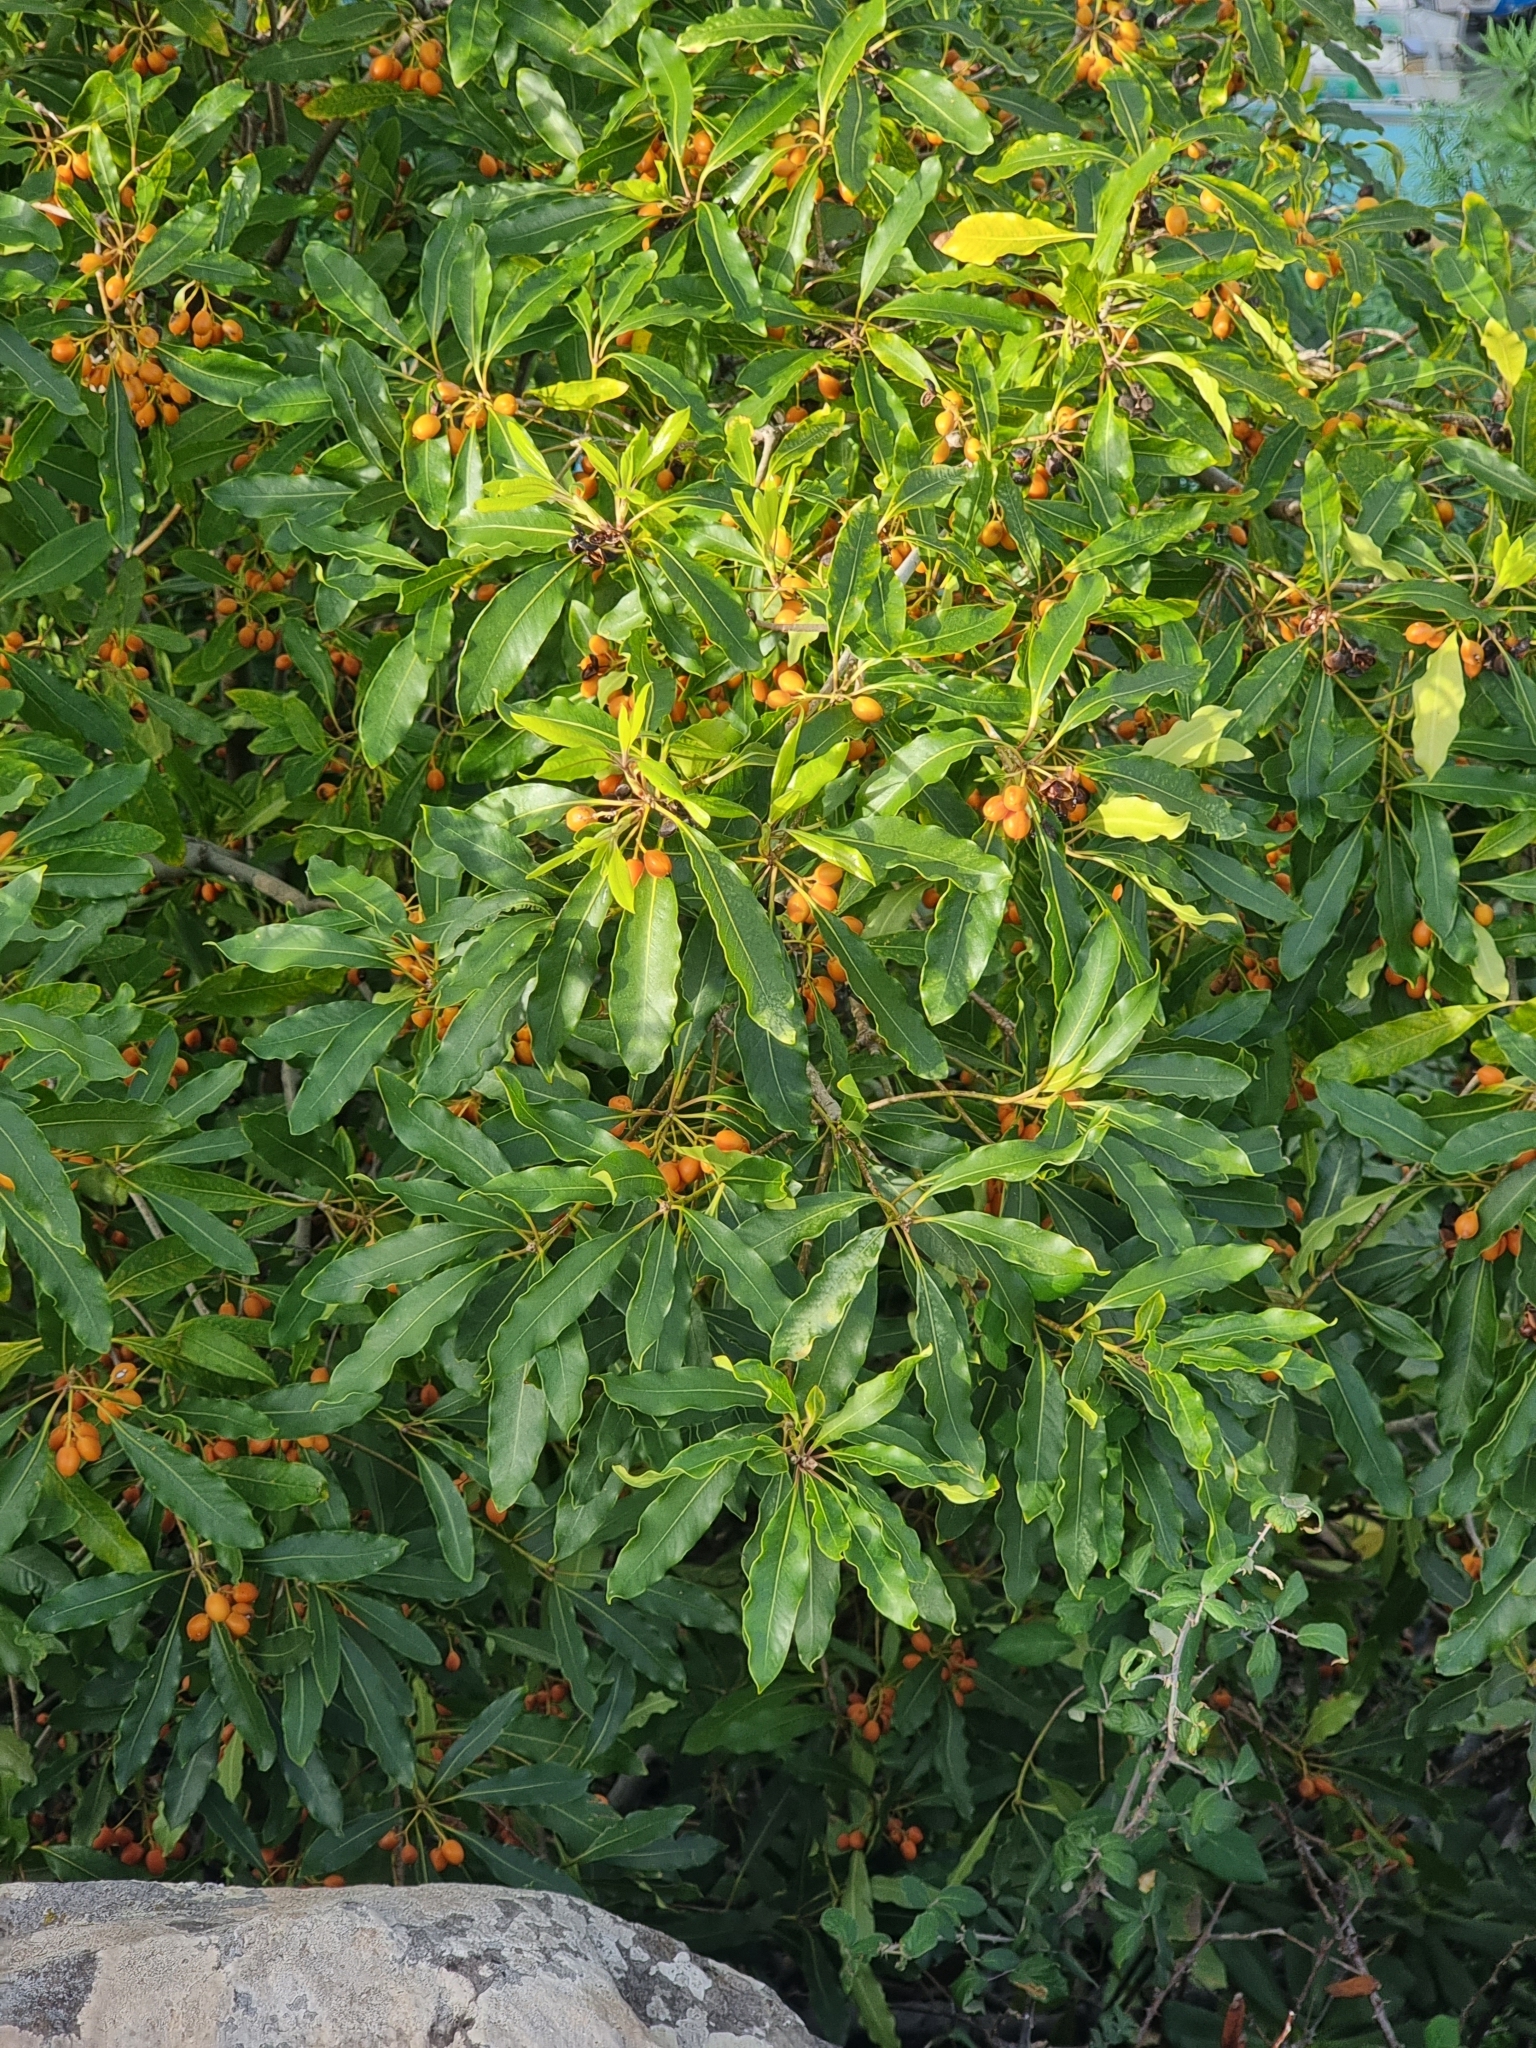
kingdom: Plantae
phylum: Tracheophyta
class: Magnoliopsida
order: Apiales
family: Pittosporaceae
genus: Pittosporum
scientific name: Pittosporum undulatum
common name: Australian cheesewood
